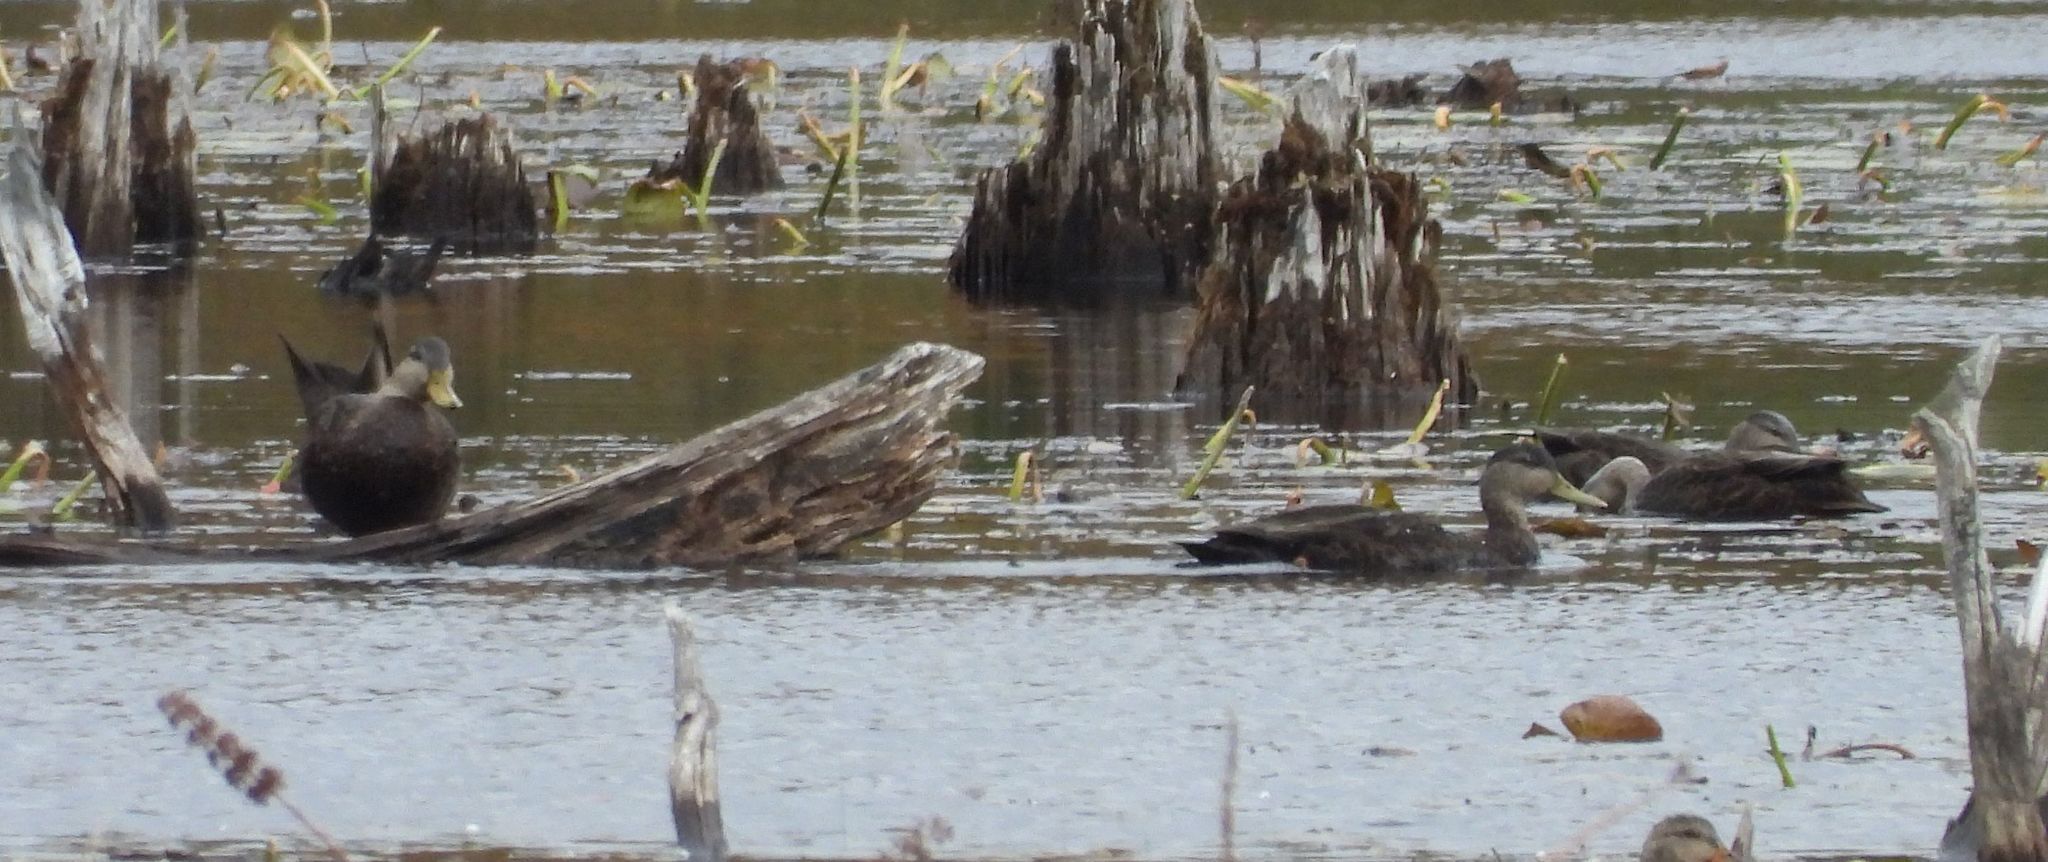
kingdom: Animalia
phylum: Chordata
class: Aves
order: Anseriformes
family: Anatidae
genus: Anas
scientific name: Anas rubripes
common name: American black duck
